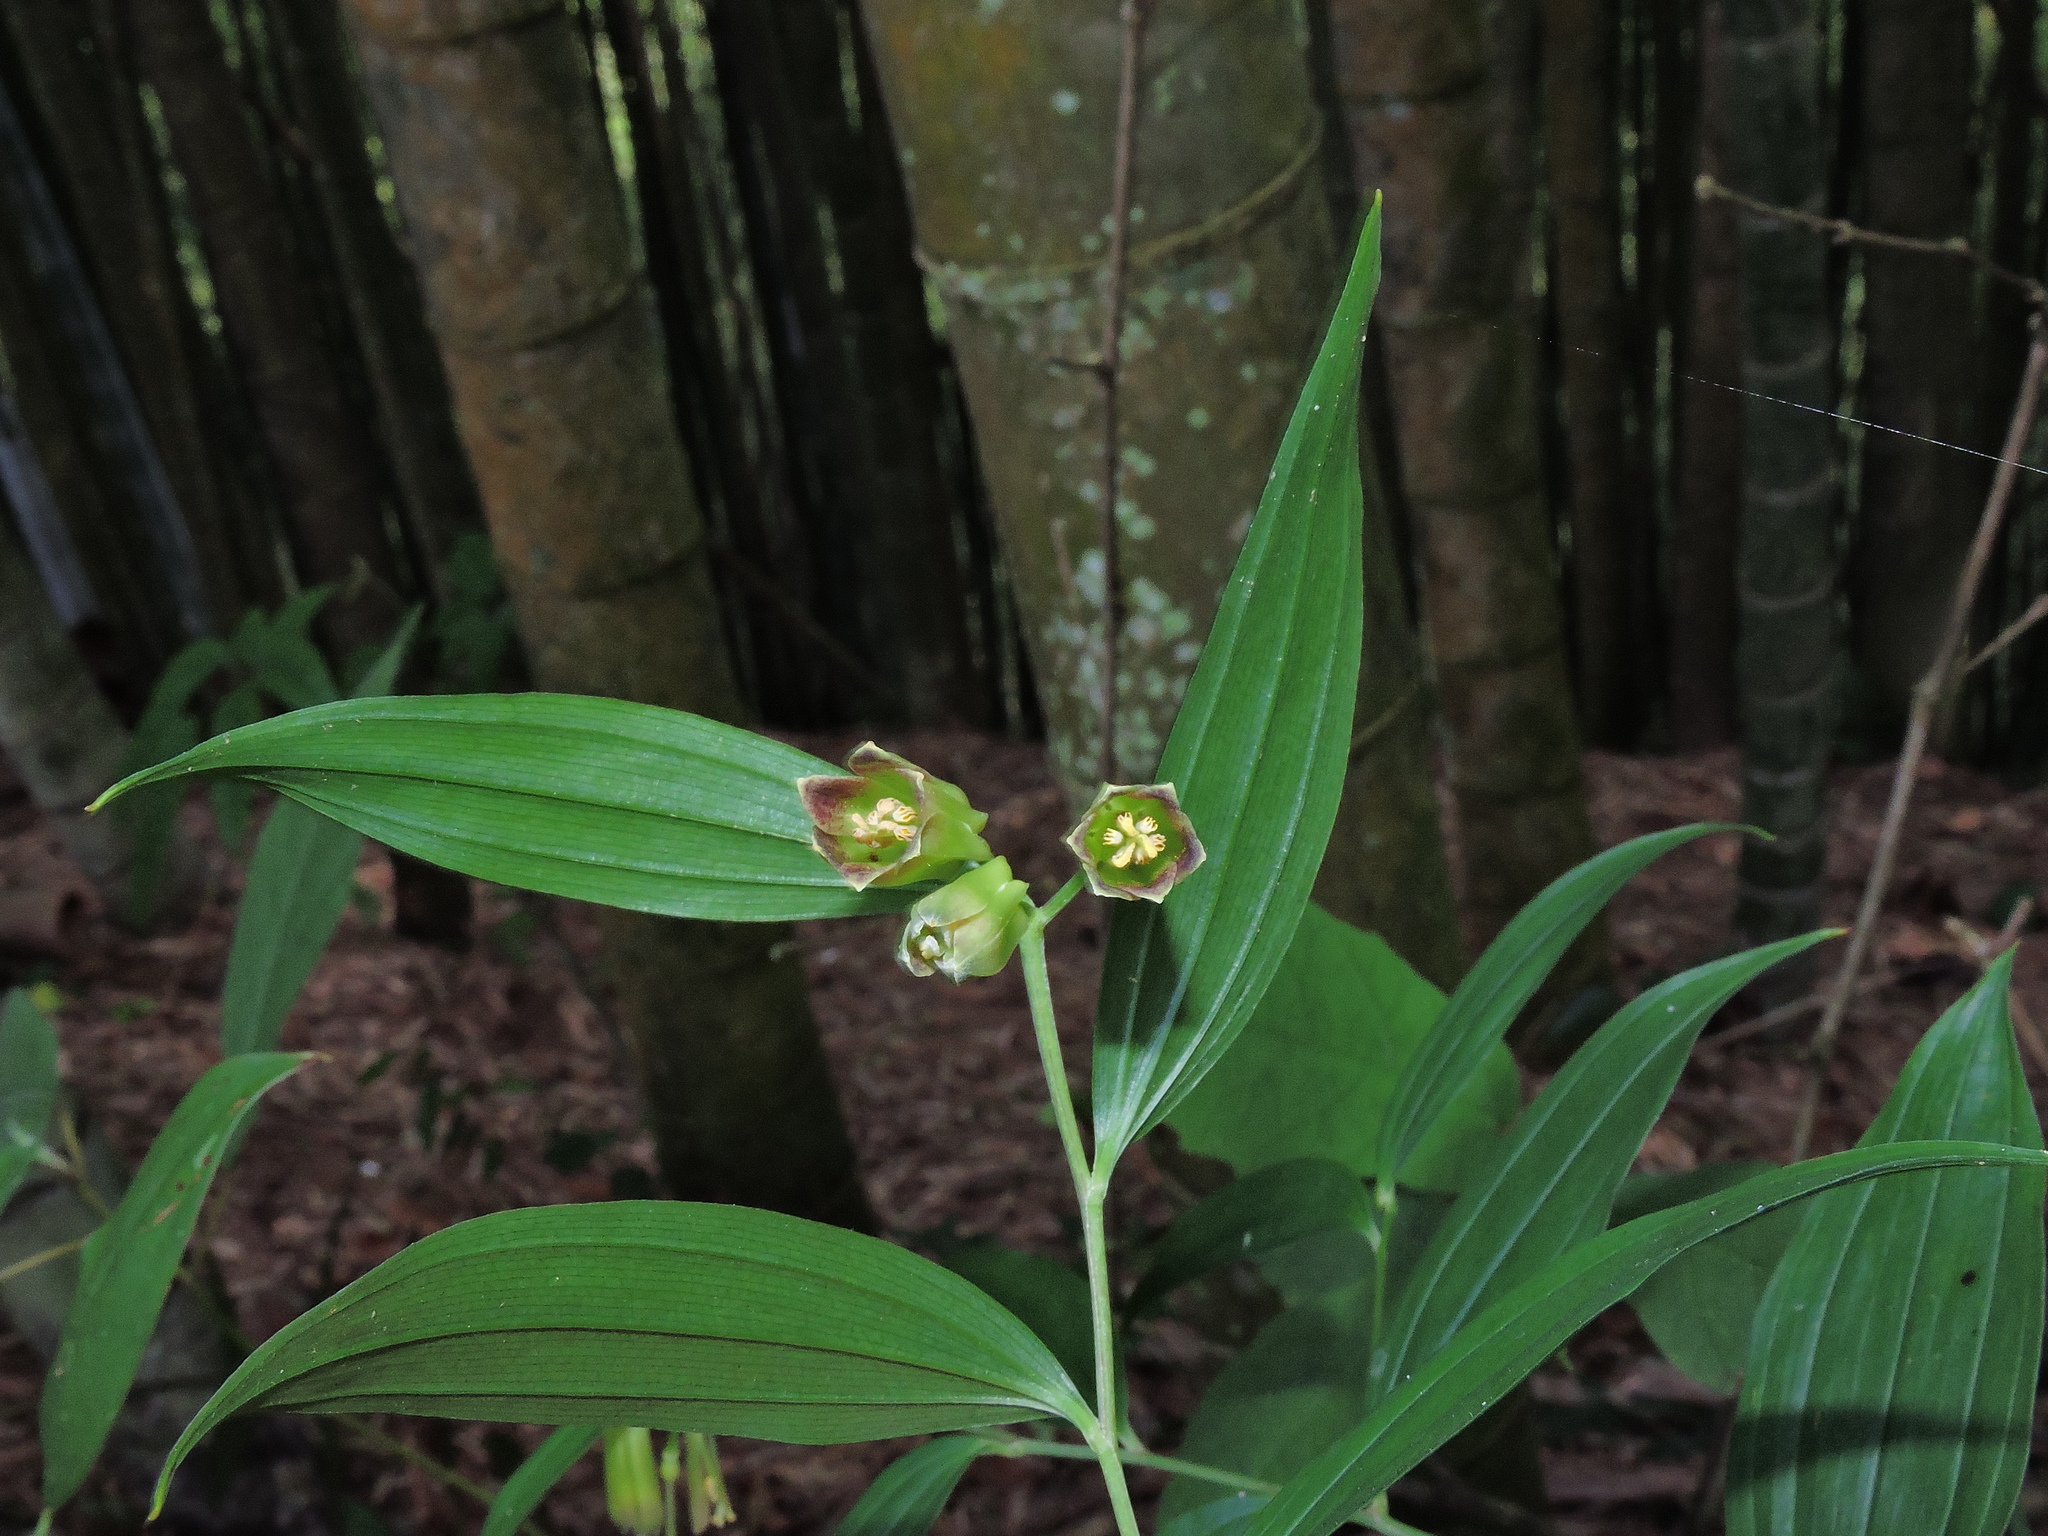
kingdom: Plantae
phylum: Tracheophyta
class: Liliopsida
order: Liliales
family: Colchicaceae
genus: Disporum
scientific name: Disporum kawakamii
